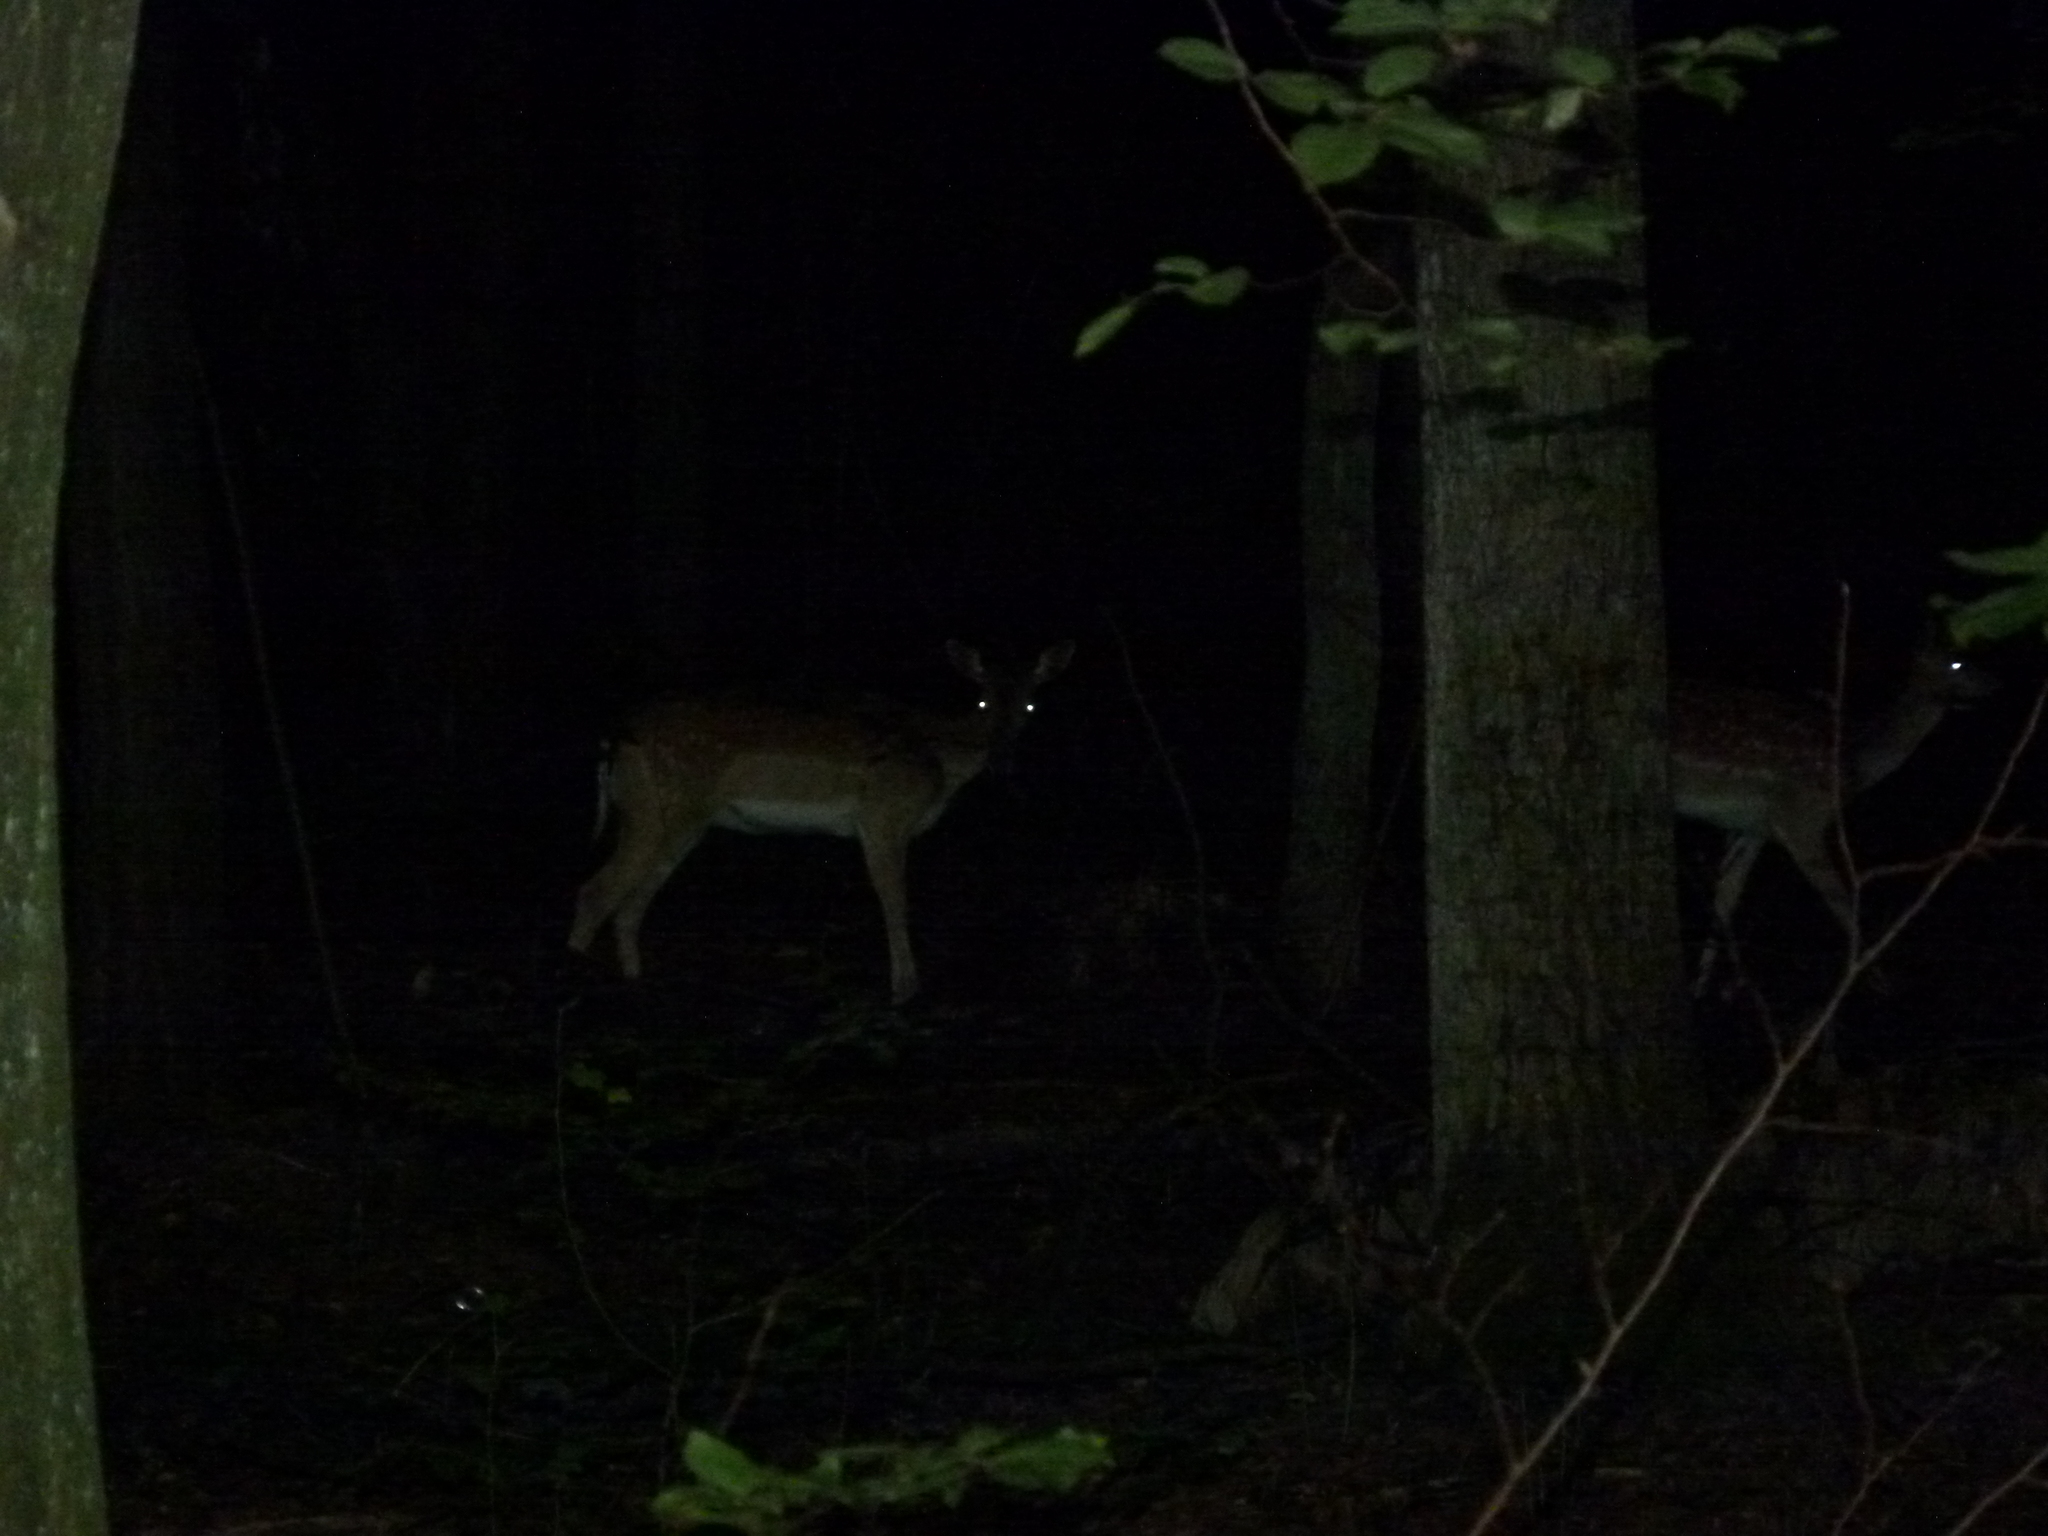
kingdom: Animalia
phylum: Chordata
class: Mammalia
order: Artiodactyla
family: Cervidae
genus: Dama
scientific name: Dama dama
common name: Fallow deer
